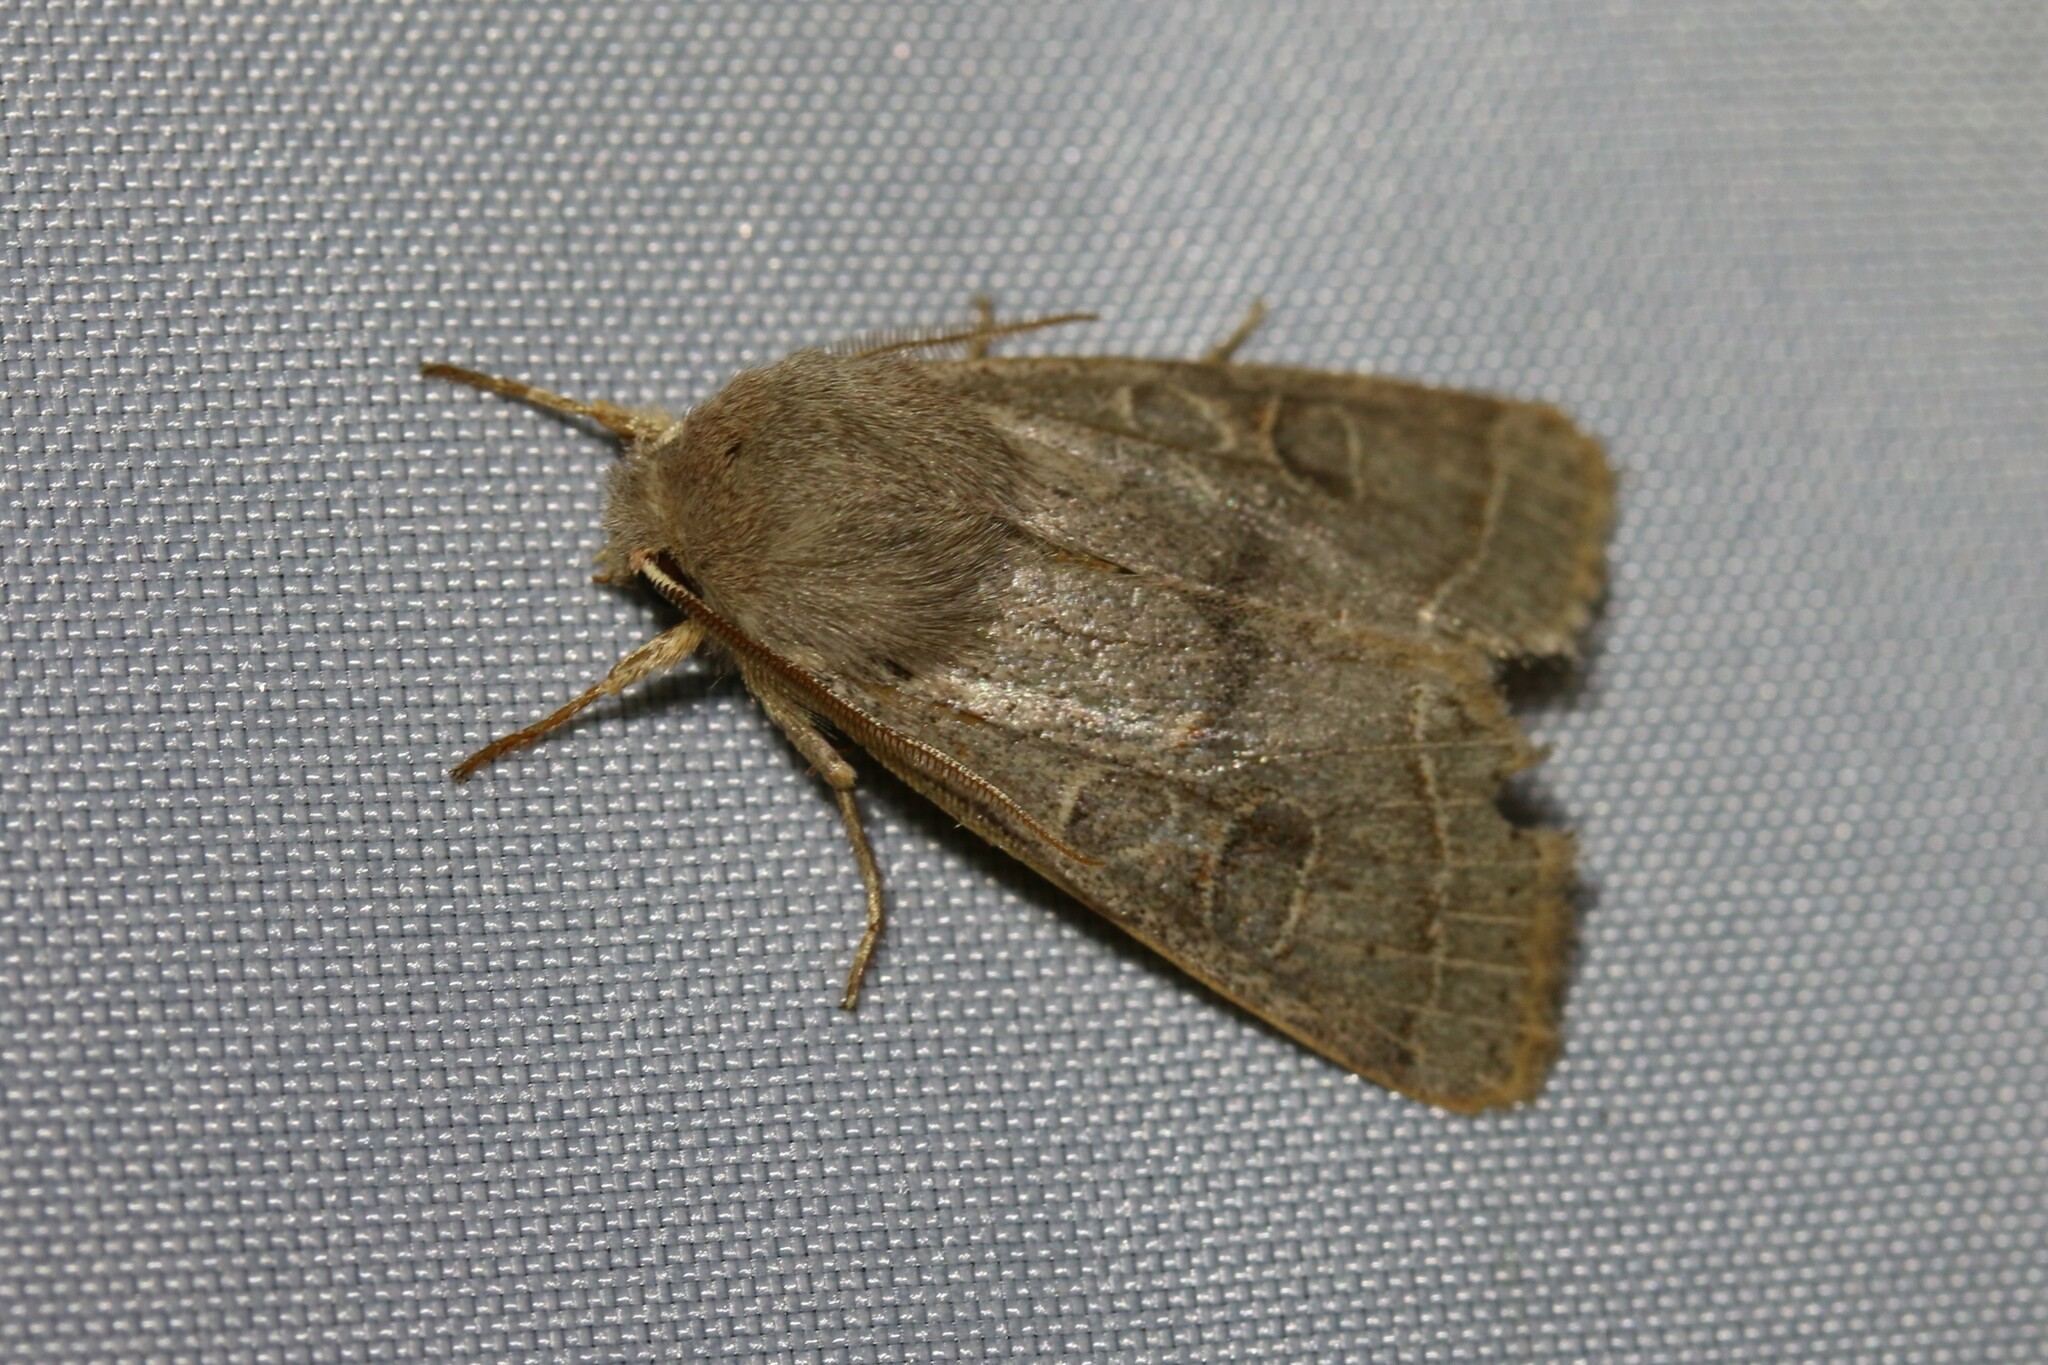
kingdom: Animalia
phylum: Arthropoda
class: Insecta
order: Lepidoptera
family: Noctuidae
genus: Orthosia
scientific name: Orthosia cerasi
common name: Common quaker
